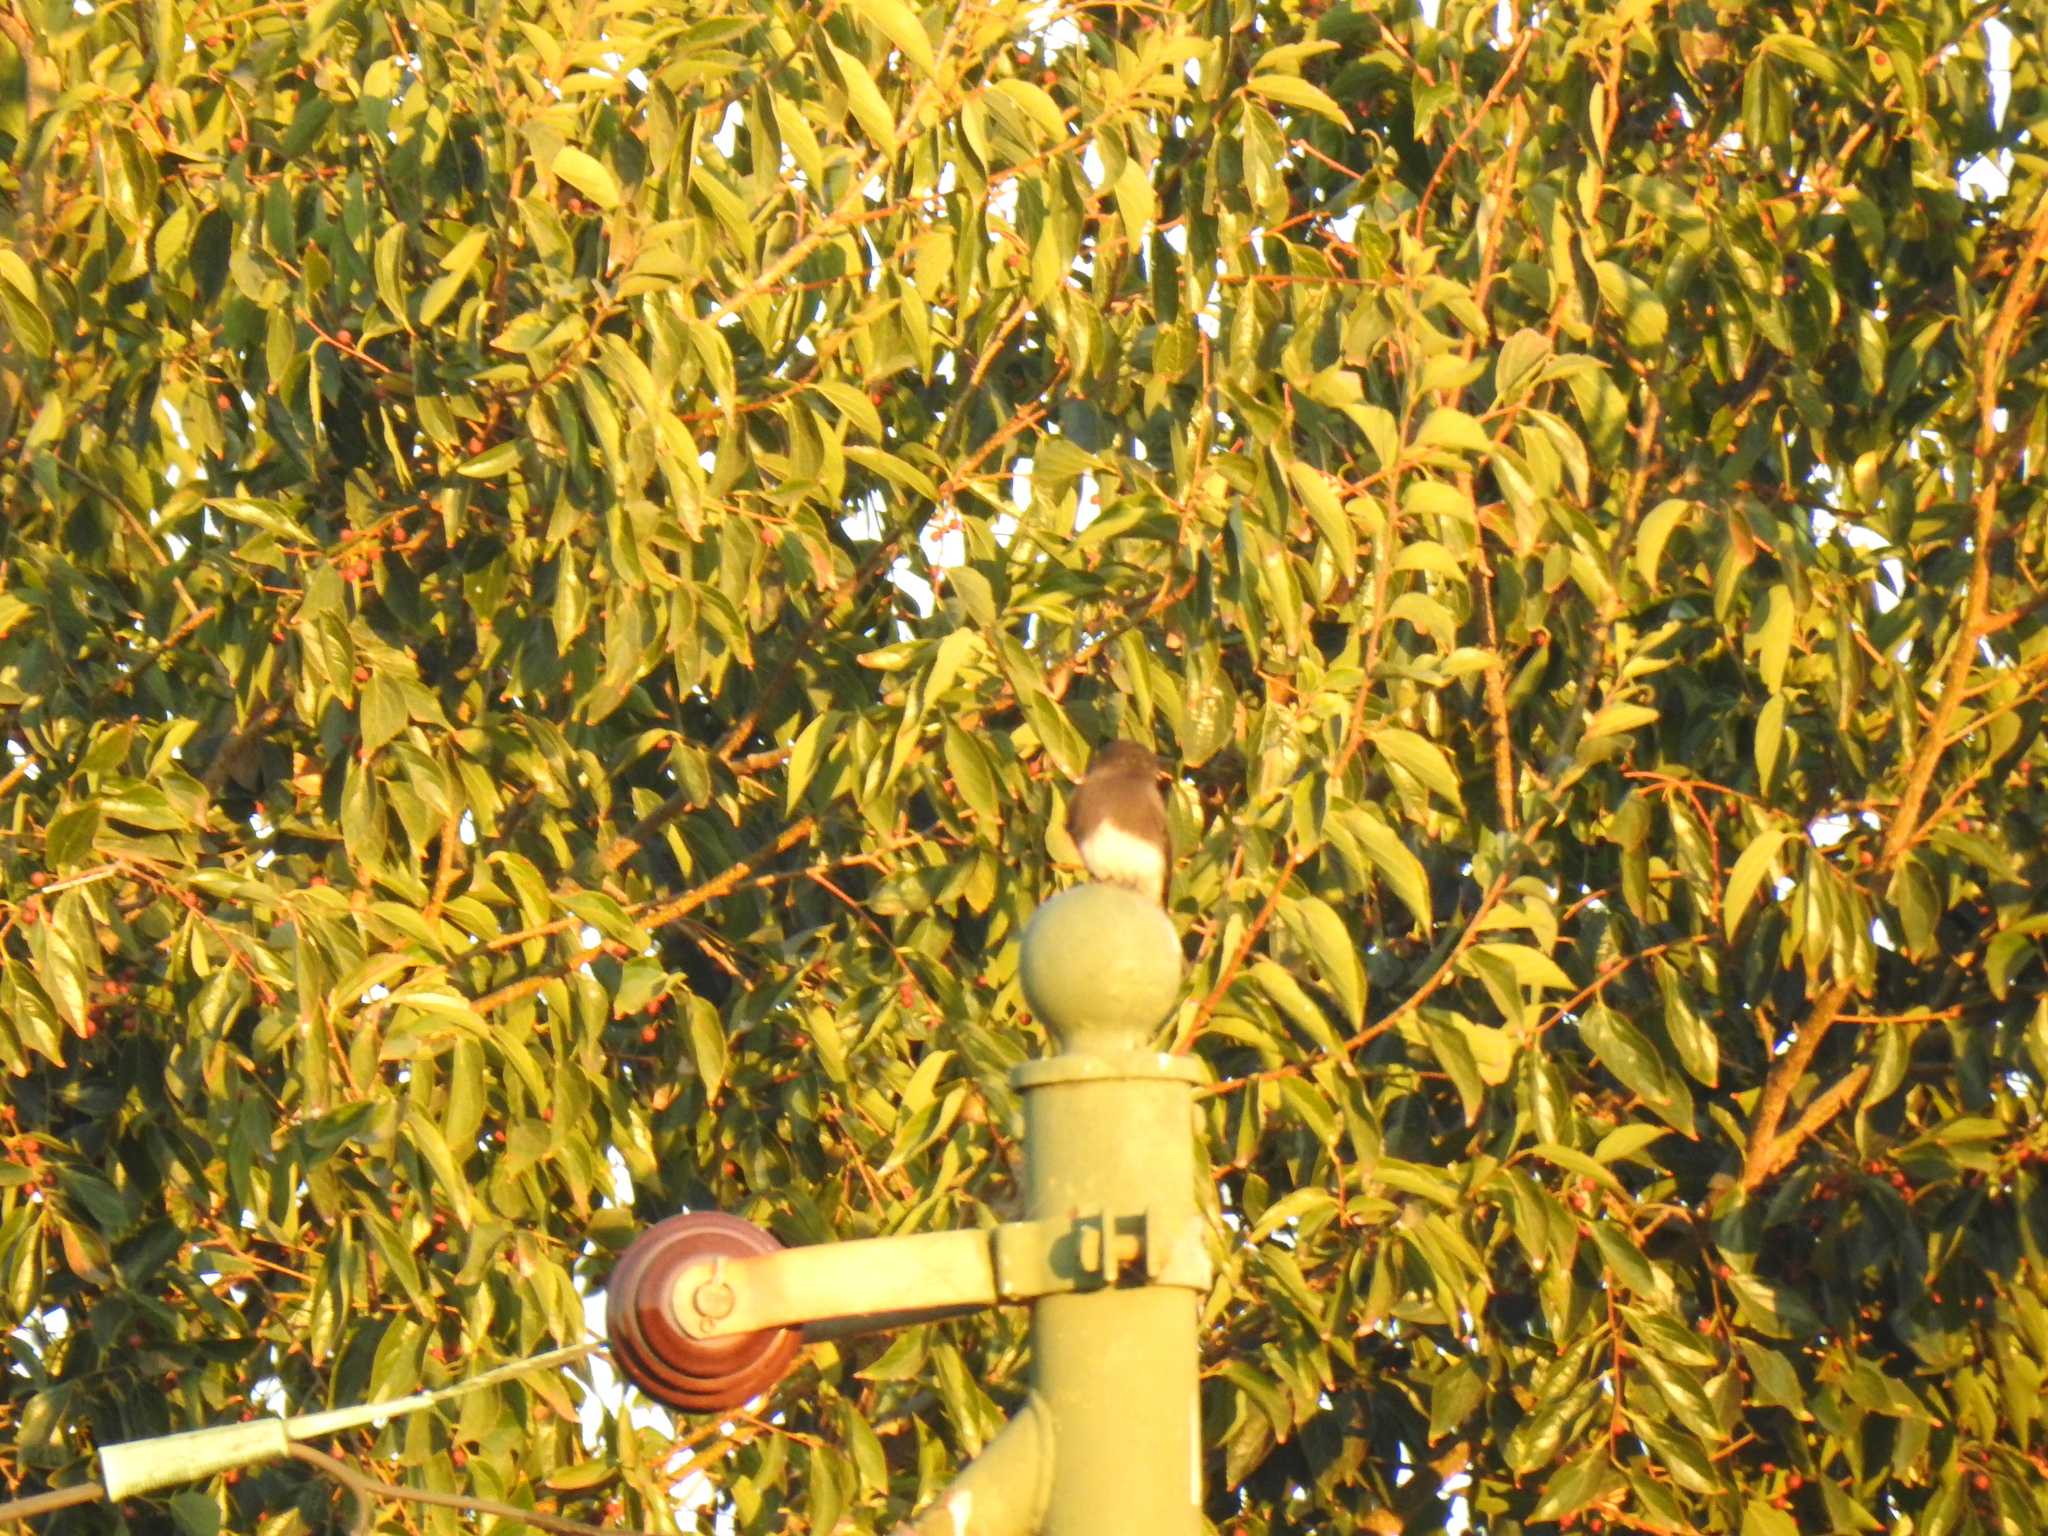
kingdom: Animalia
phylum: Chordata
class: Aves
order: Passeriformes
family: Tyrannidae
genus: Sayornis
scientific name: Sayornis nigricans
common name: Black phoebe
